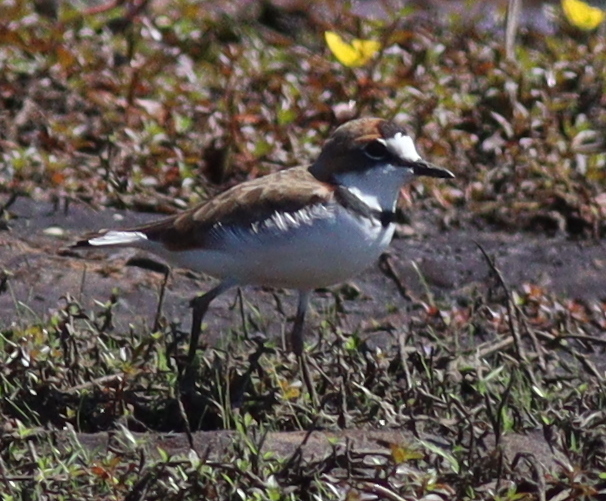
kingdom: Animalia
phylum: Chordata
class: Aves
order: Charadriiformes
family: Charadriidae
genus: Anarhynchus
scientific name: Anarhynchus
